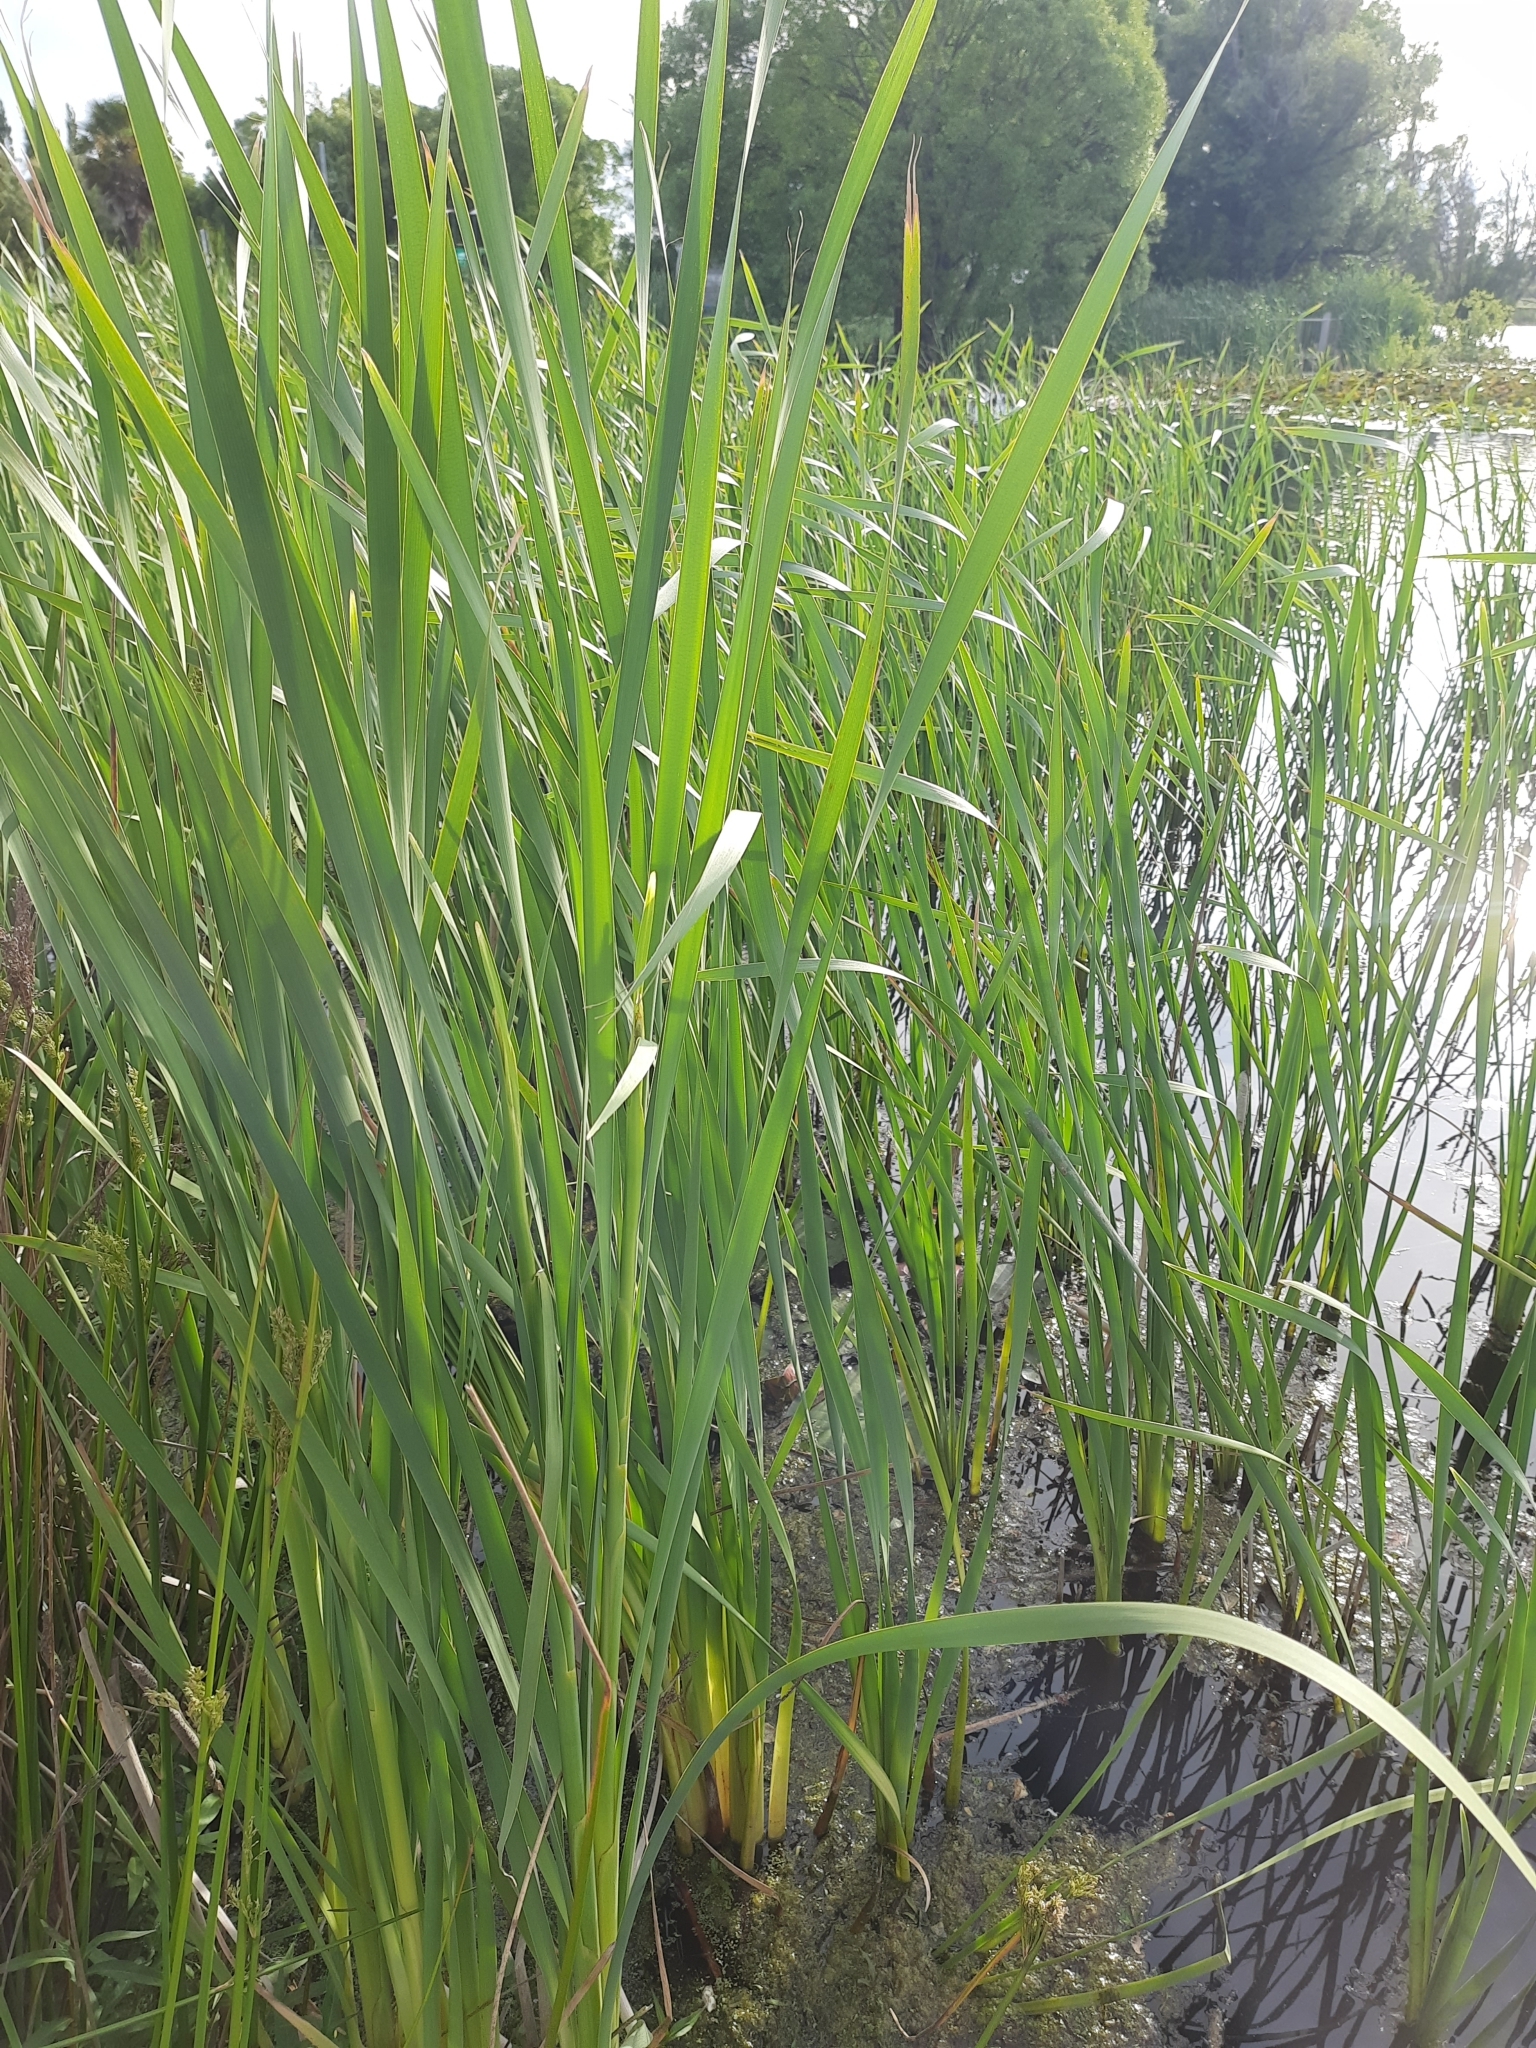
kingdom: Plantae
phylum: Tracheophyta
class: Liliopsida
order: Poales
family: Typhaceae
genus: Typha
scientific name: Typha orientalis
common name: Bullrush
